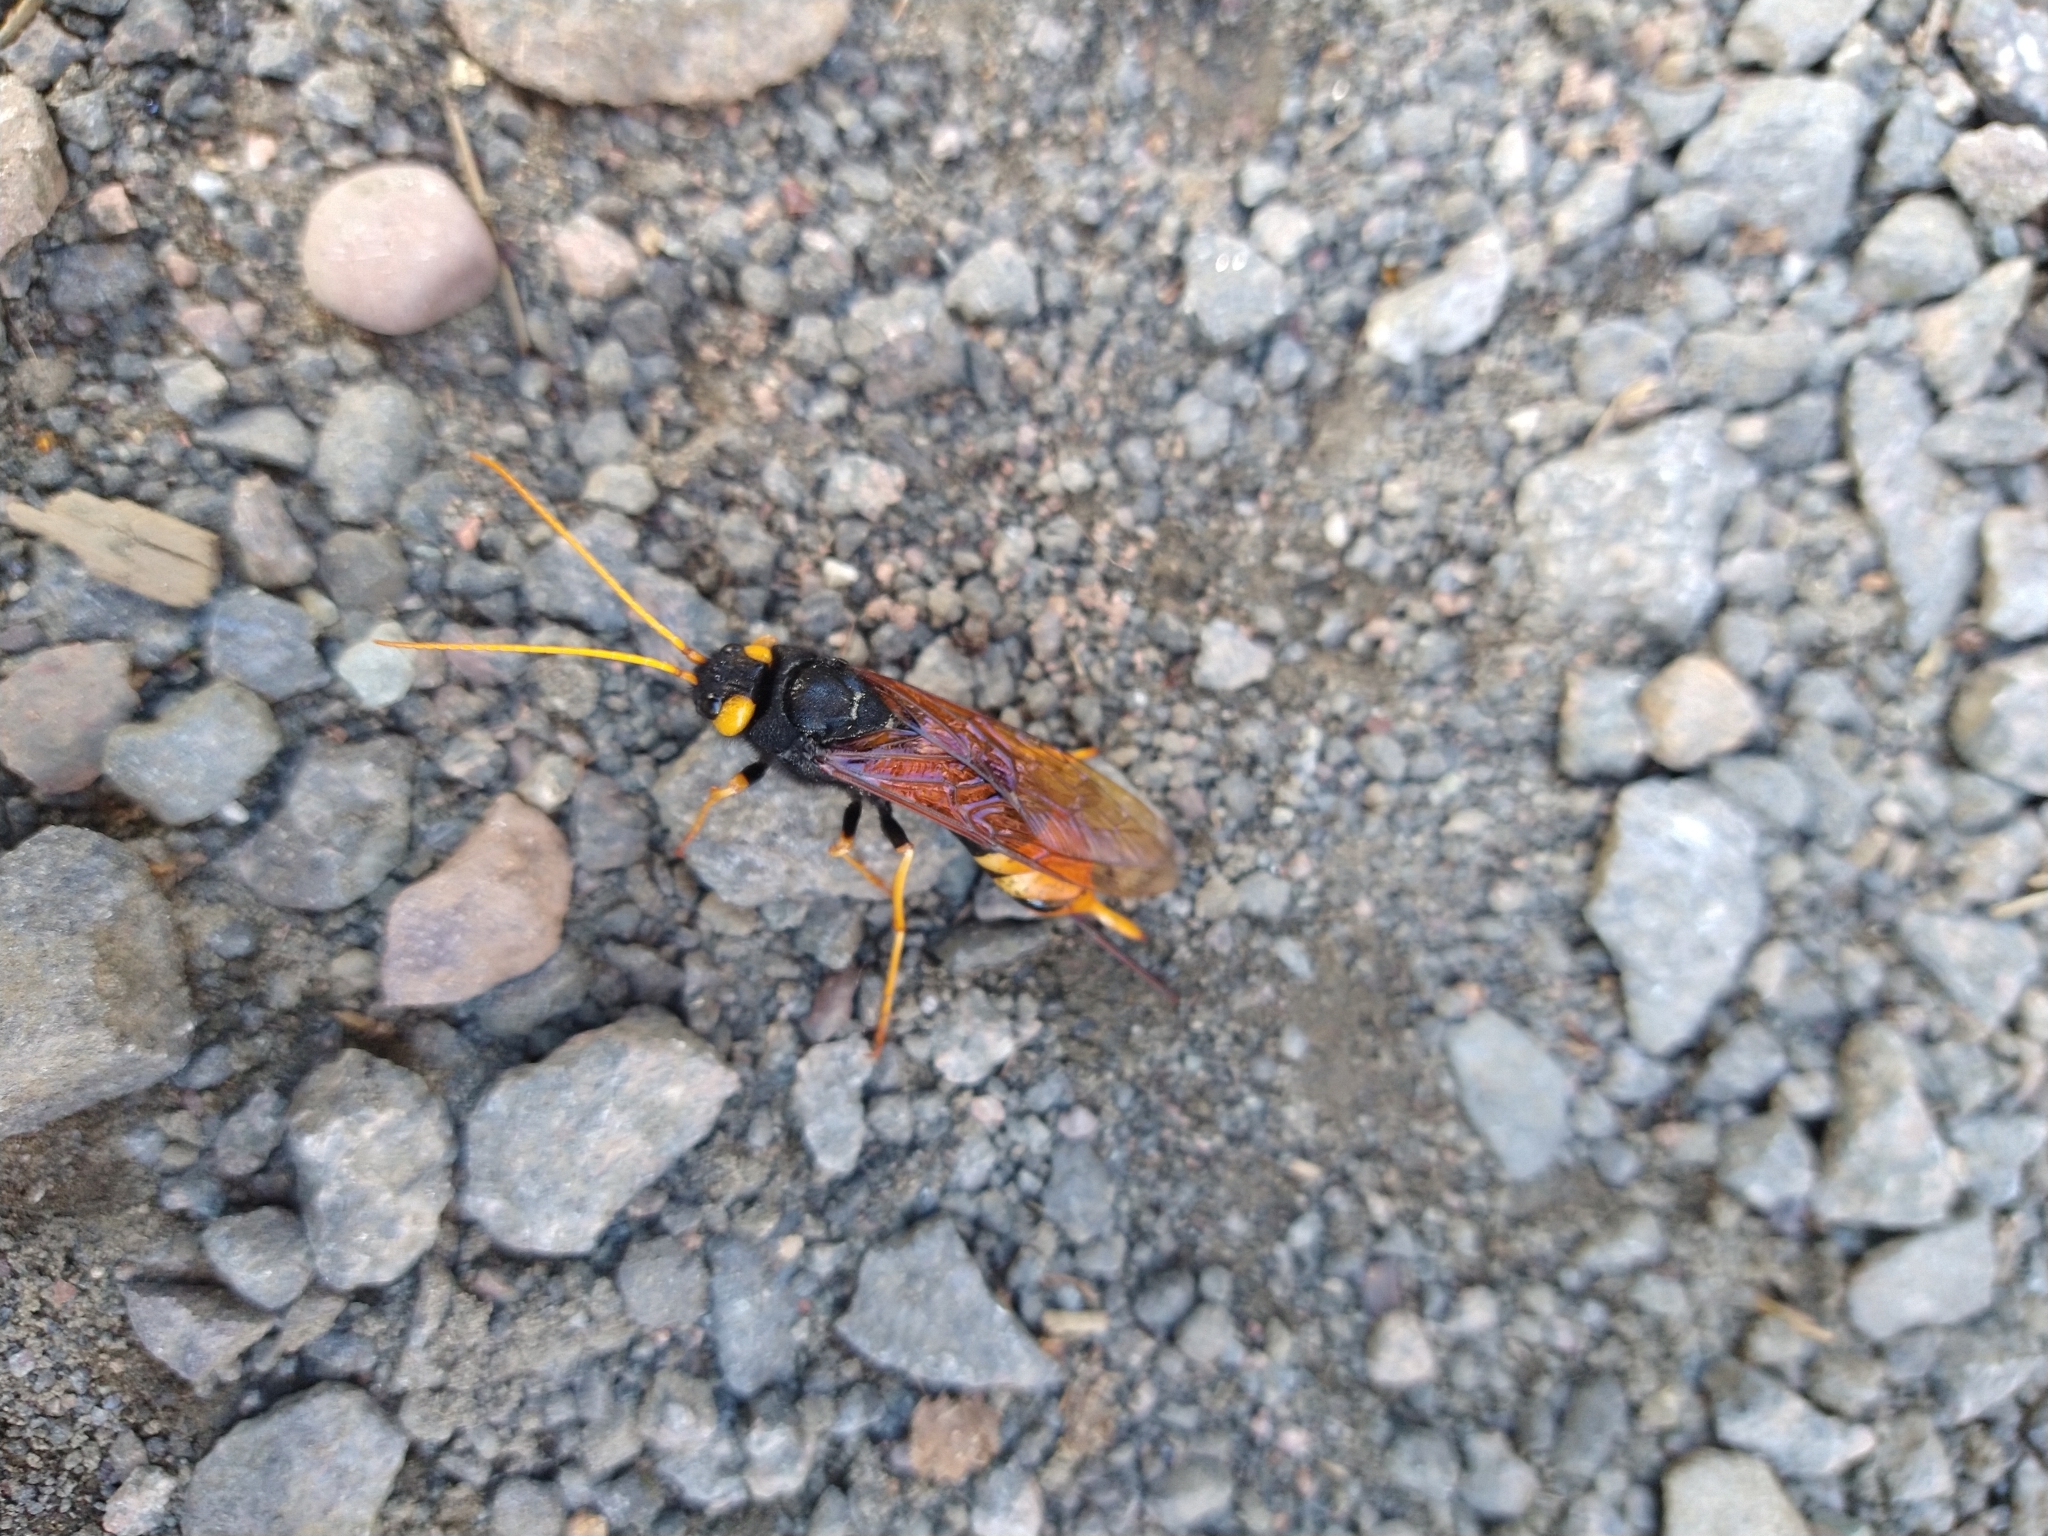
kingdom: Animalia
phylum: Arthropoda
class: Insecta
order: Hymenoptera
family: Siricidae
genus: Urocerus
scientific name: Urocerus gigas
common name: Giant woodwasp
